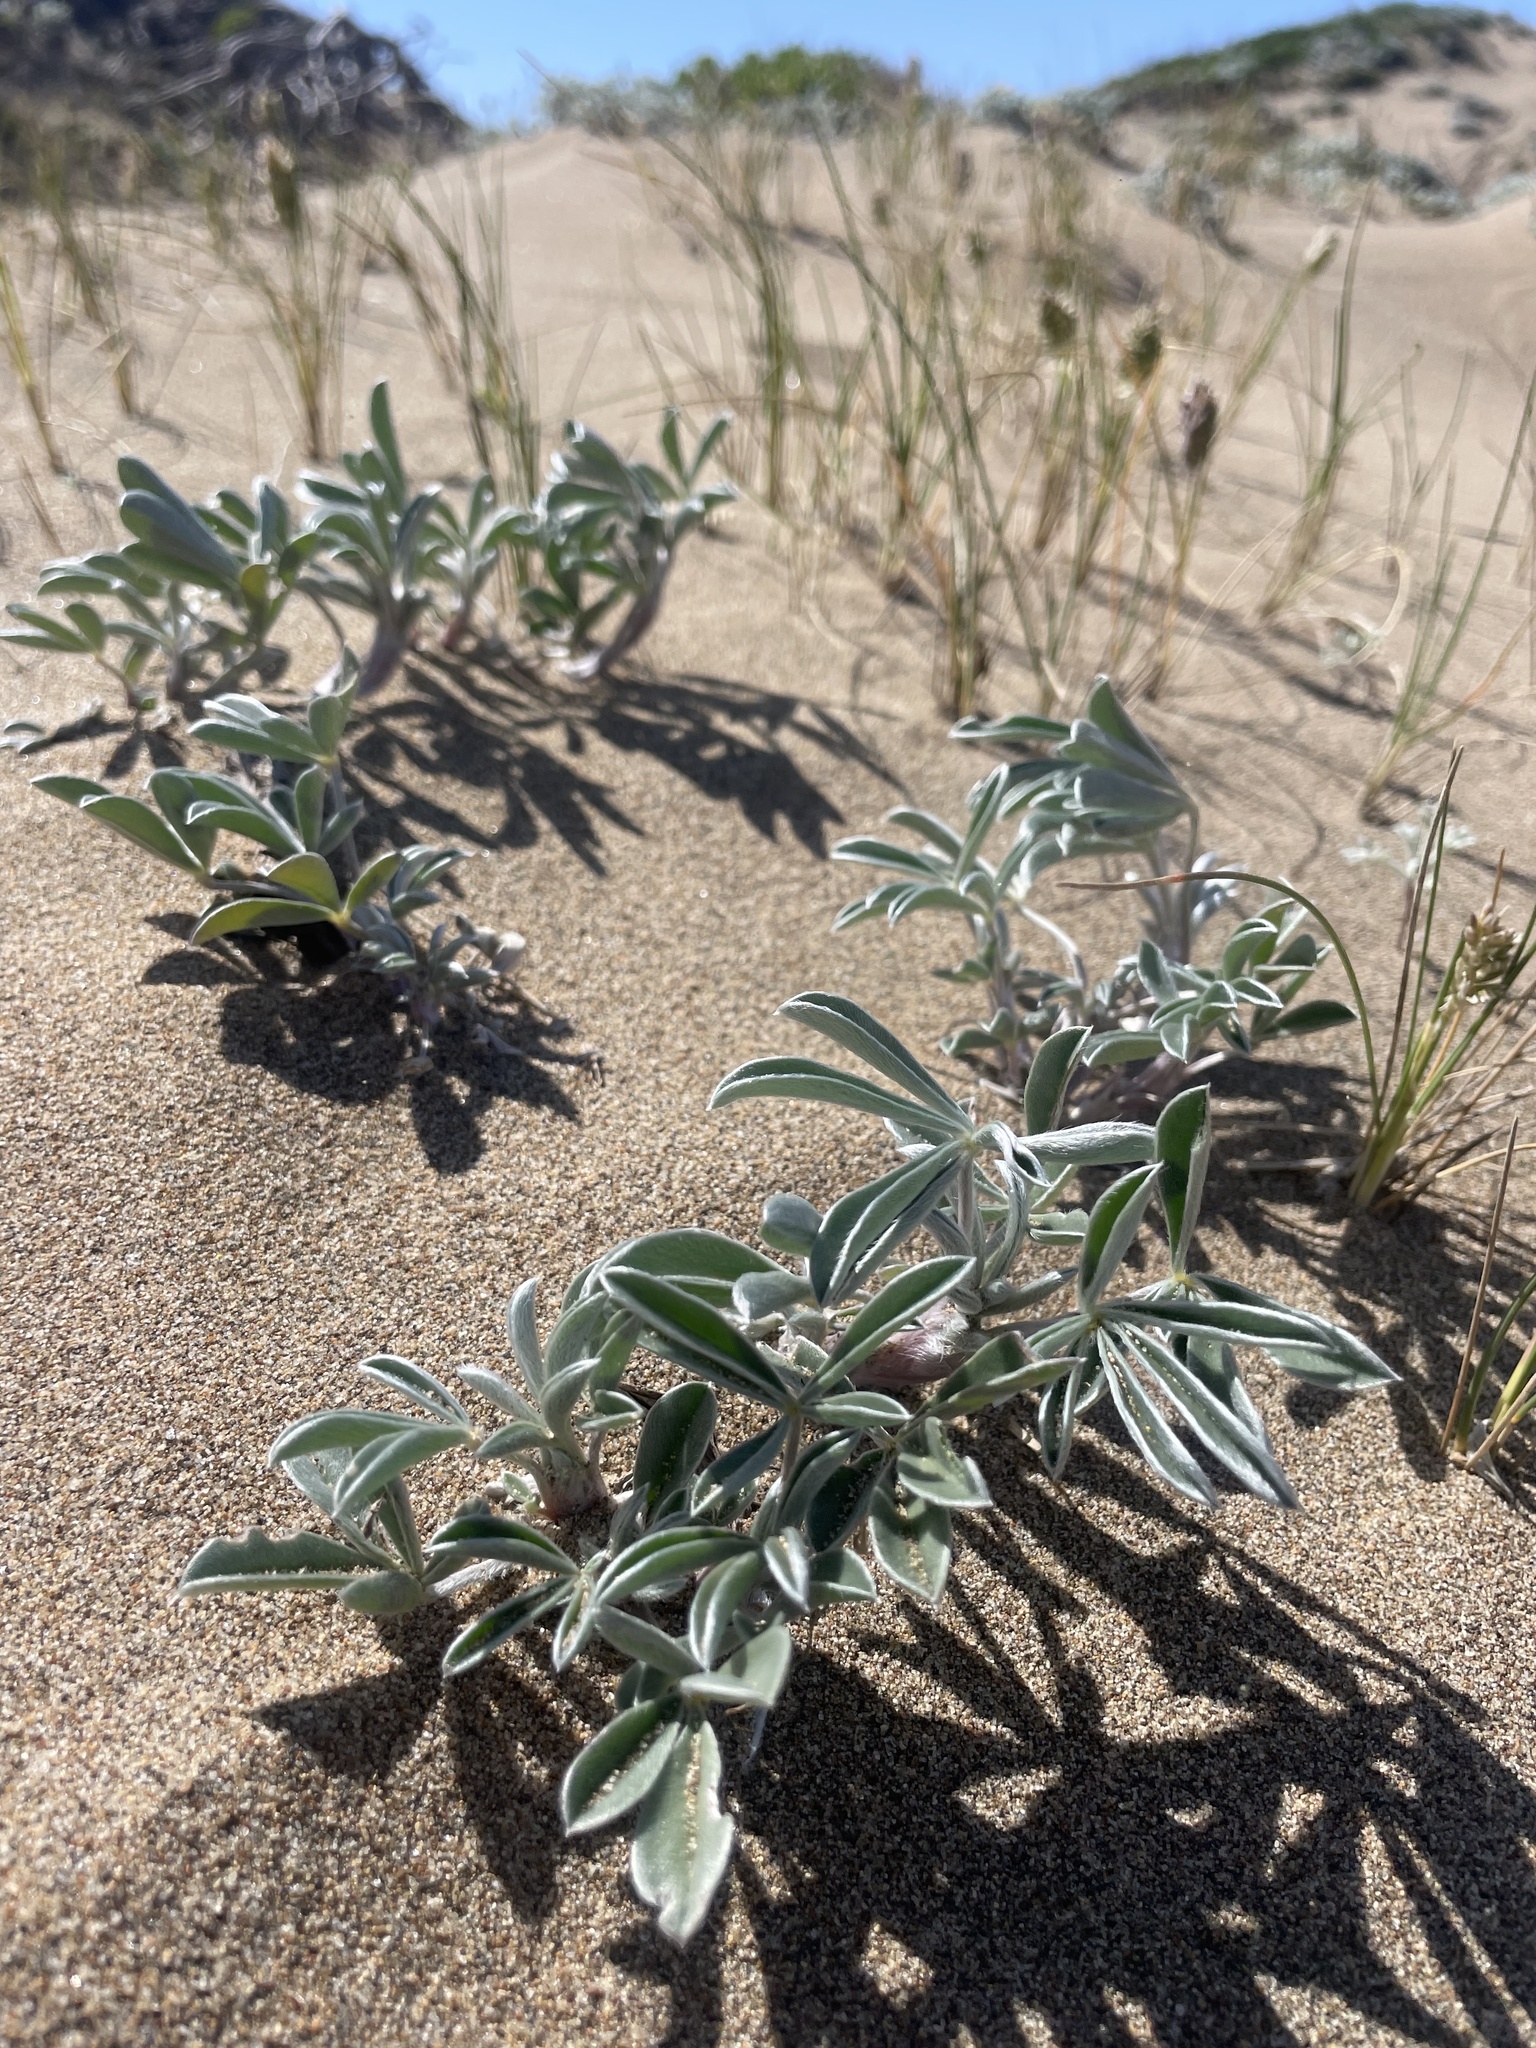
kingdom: Plantae
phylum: Tracheophyta
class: Magnoliopsida
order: Fabales
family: Fabaceae
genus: Lupinus
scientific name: Lupinus tidestromii
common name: Clover lupine
